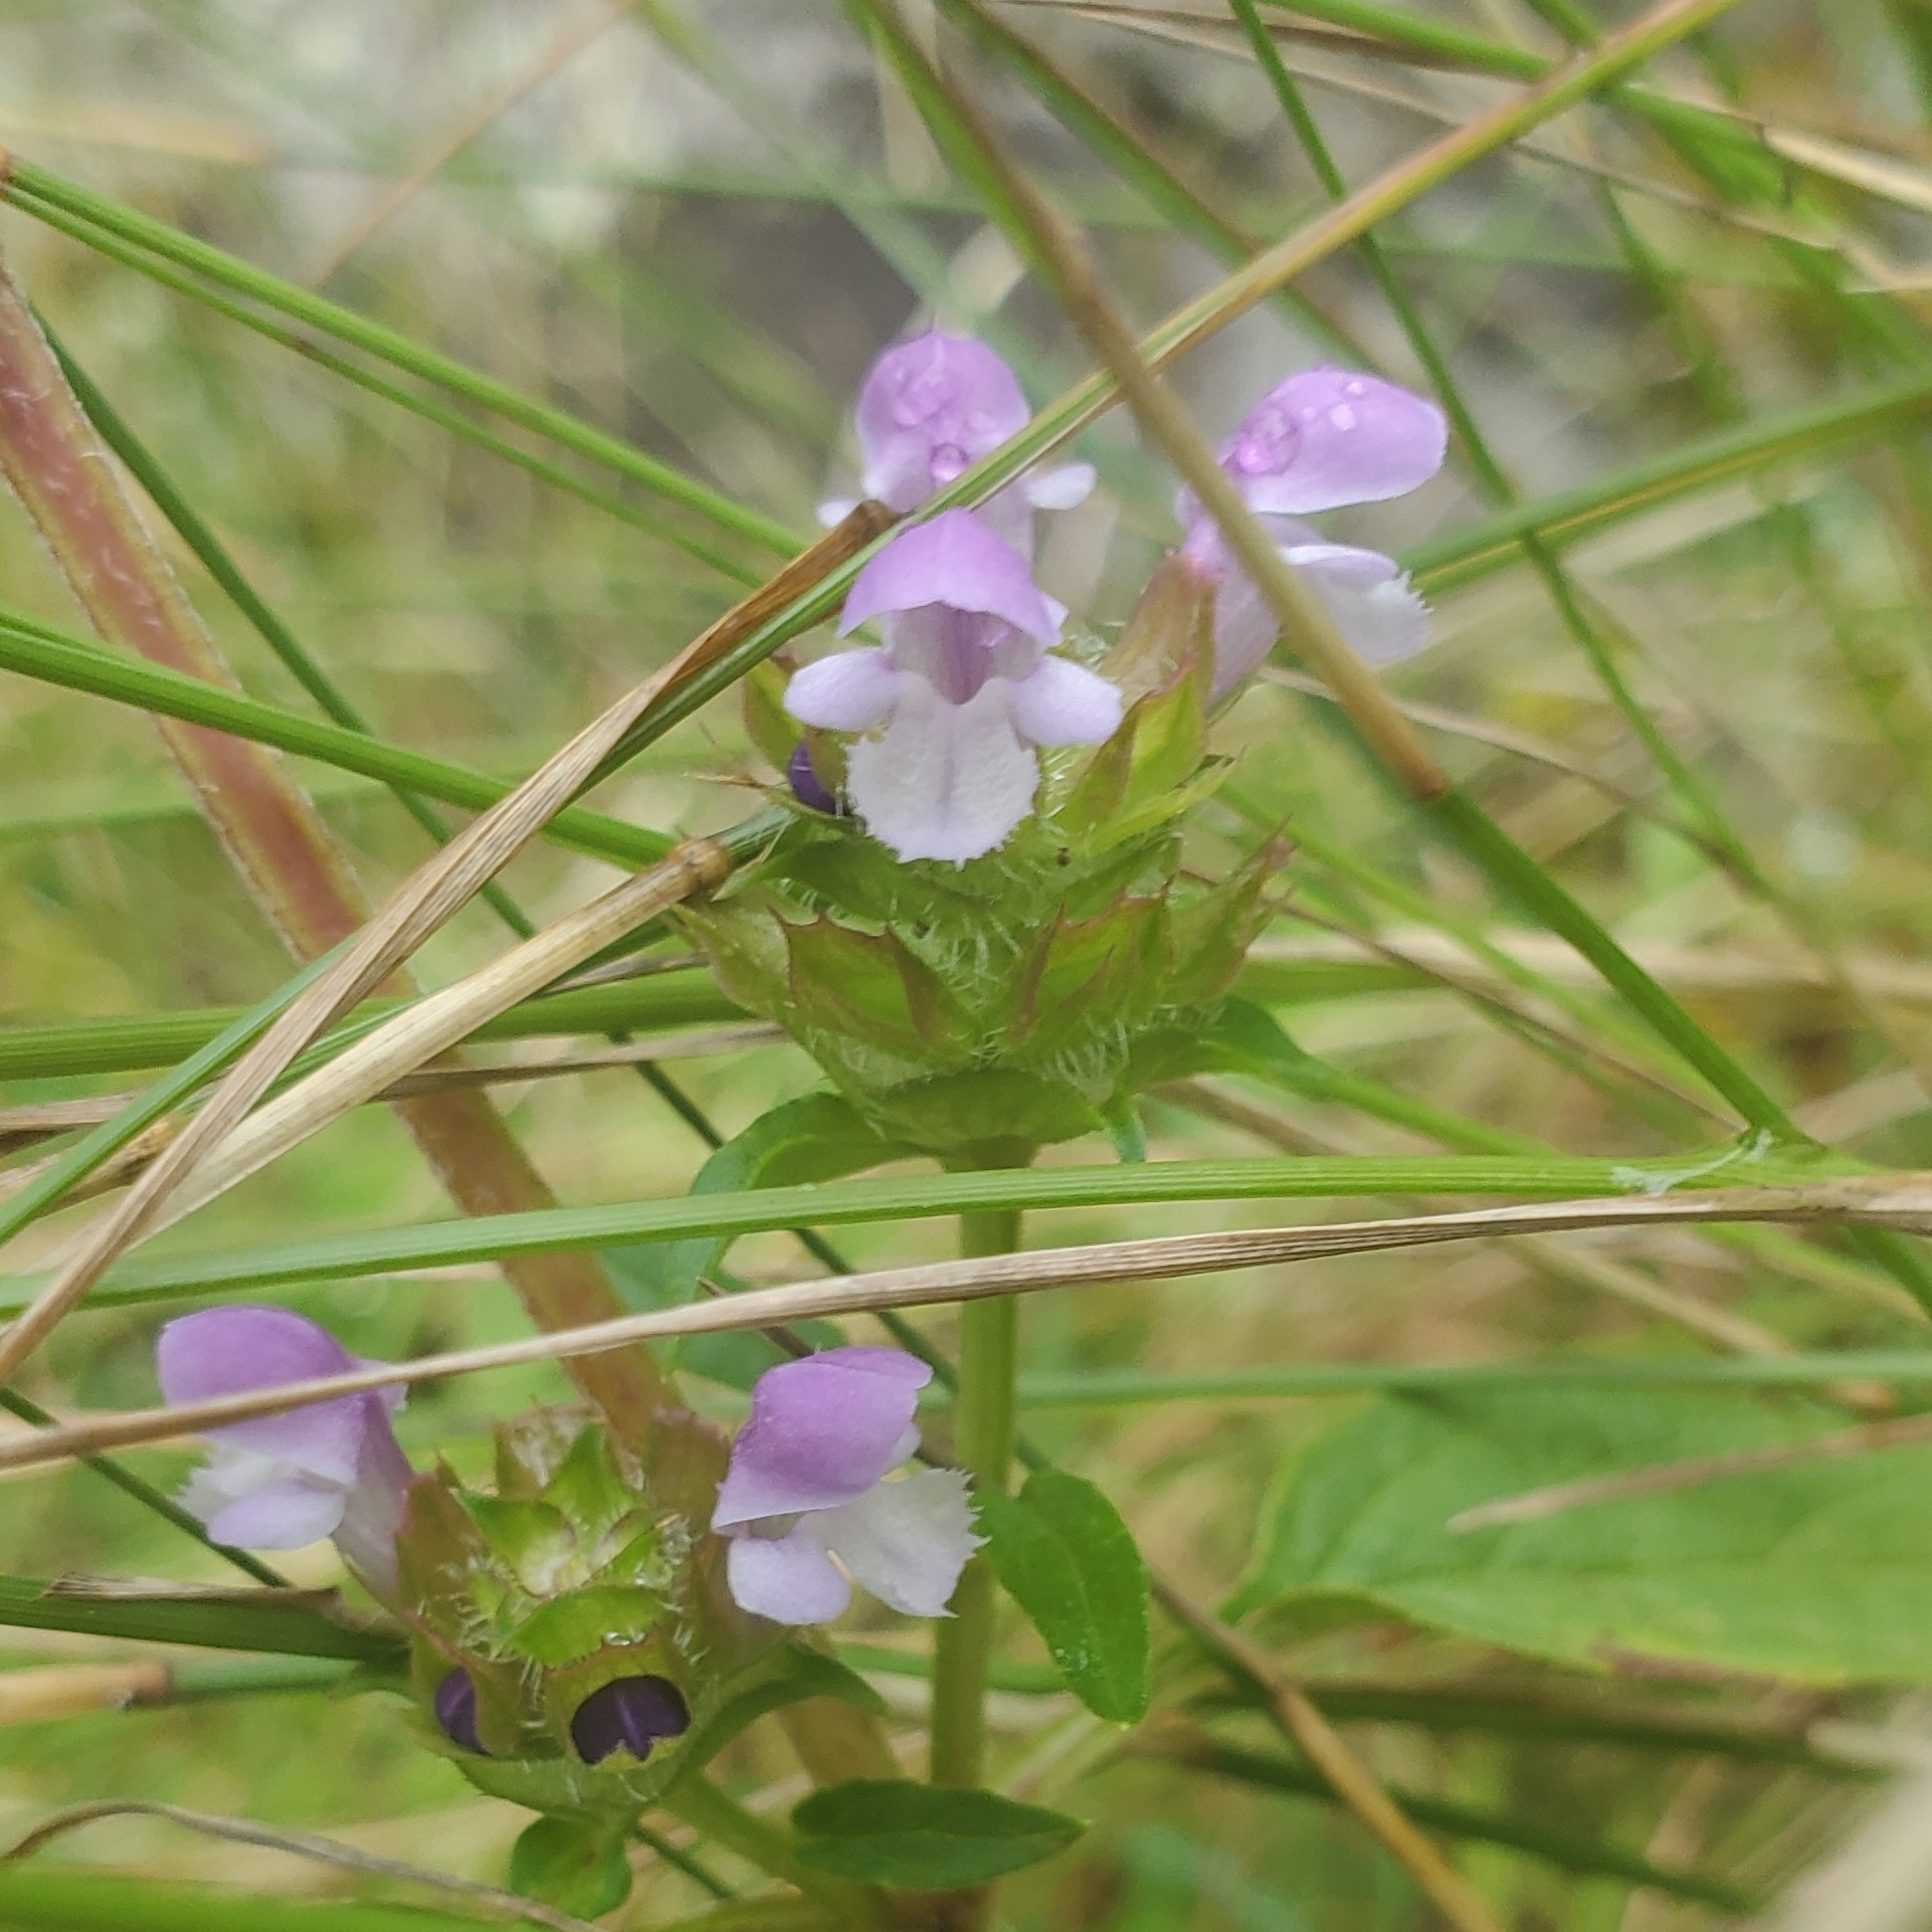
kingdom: Plantae
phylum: Tracheophyta
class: Magnoliopsida
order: Lamiales
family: Lamiaceae
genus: Prunella
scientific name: Prunella vulgaris
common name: Heal-all
